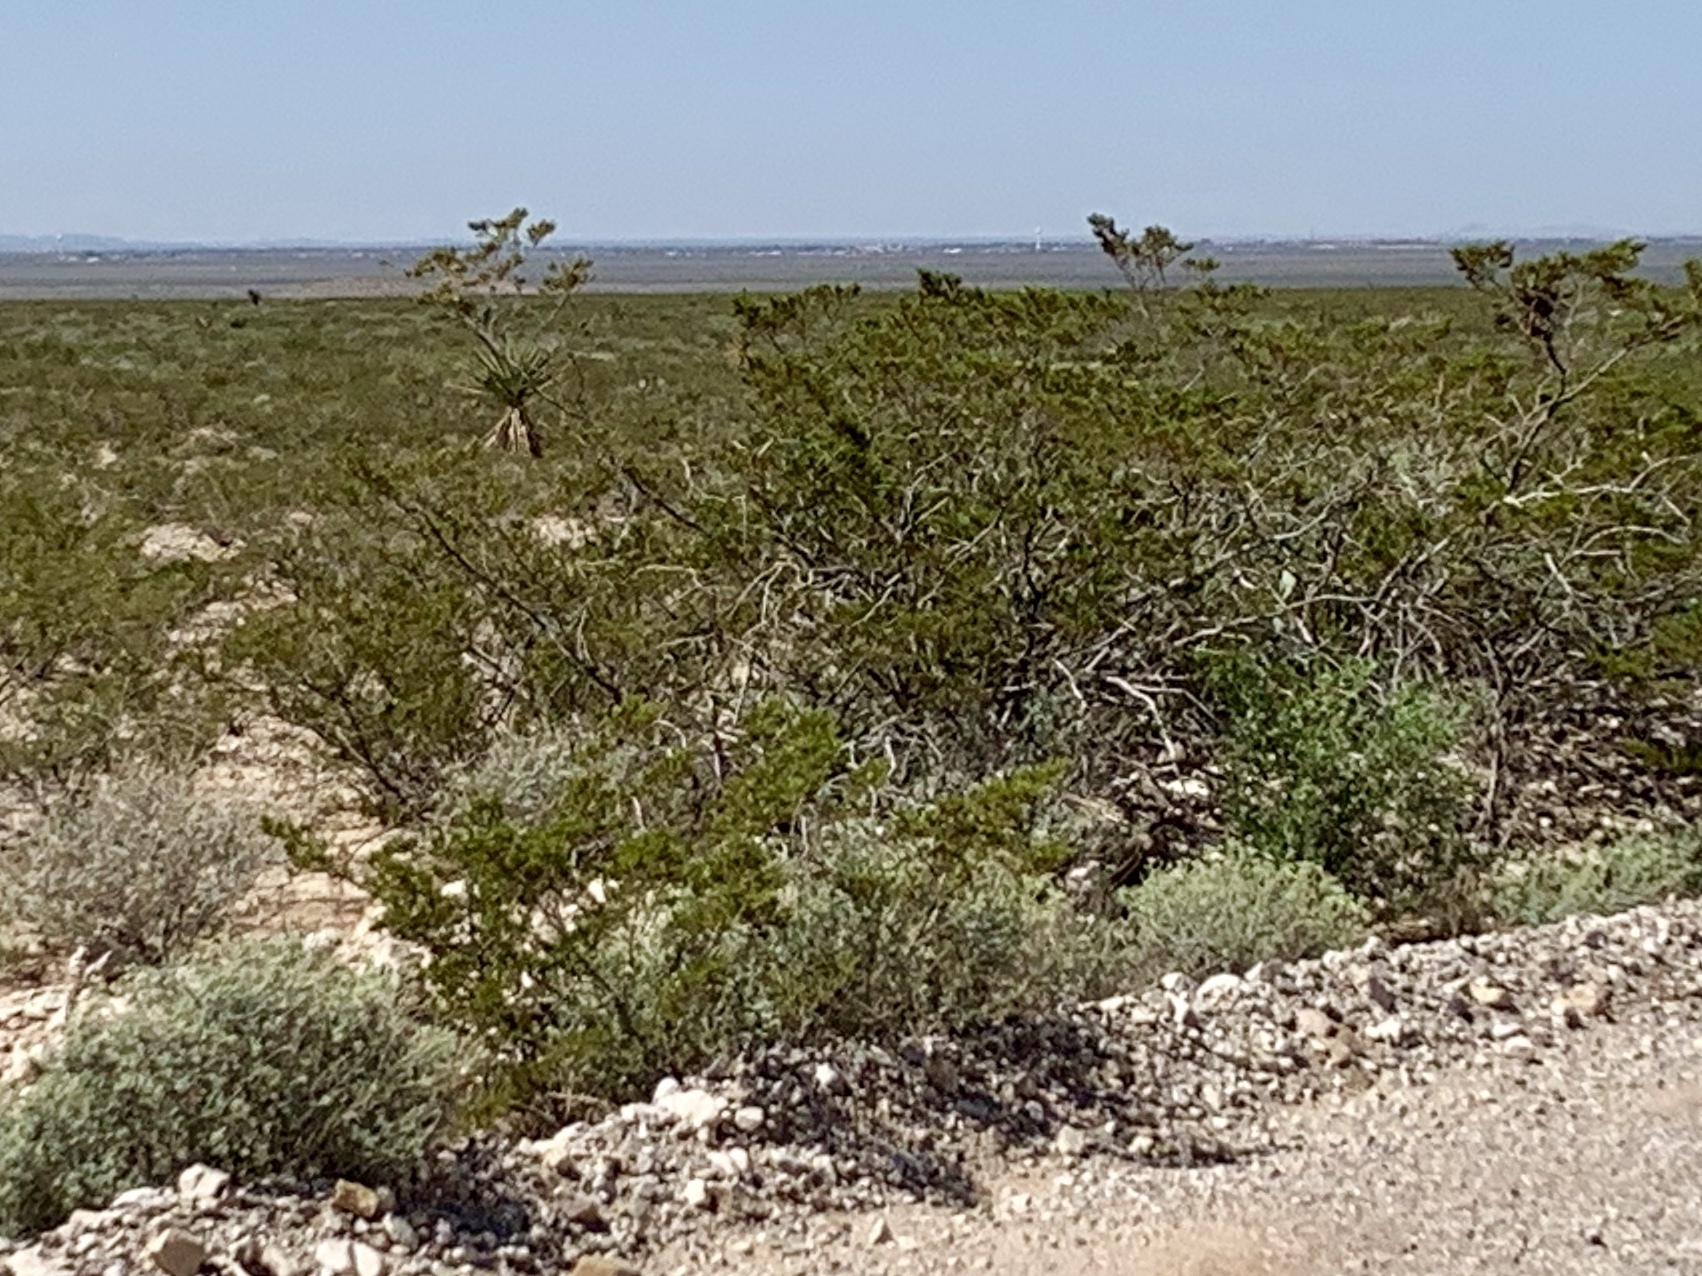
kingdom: Plantae
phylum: Tracheophyta
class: Magnoliopsida
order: Zygophyllales
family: Zygophyllaceae
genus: Larrea
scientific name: Larrea tridentata
